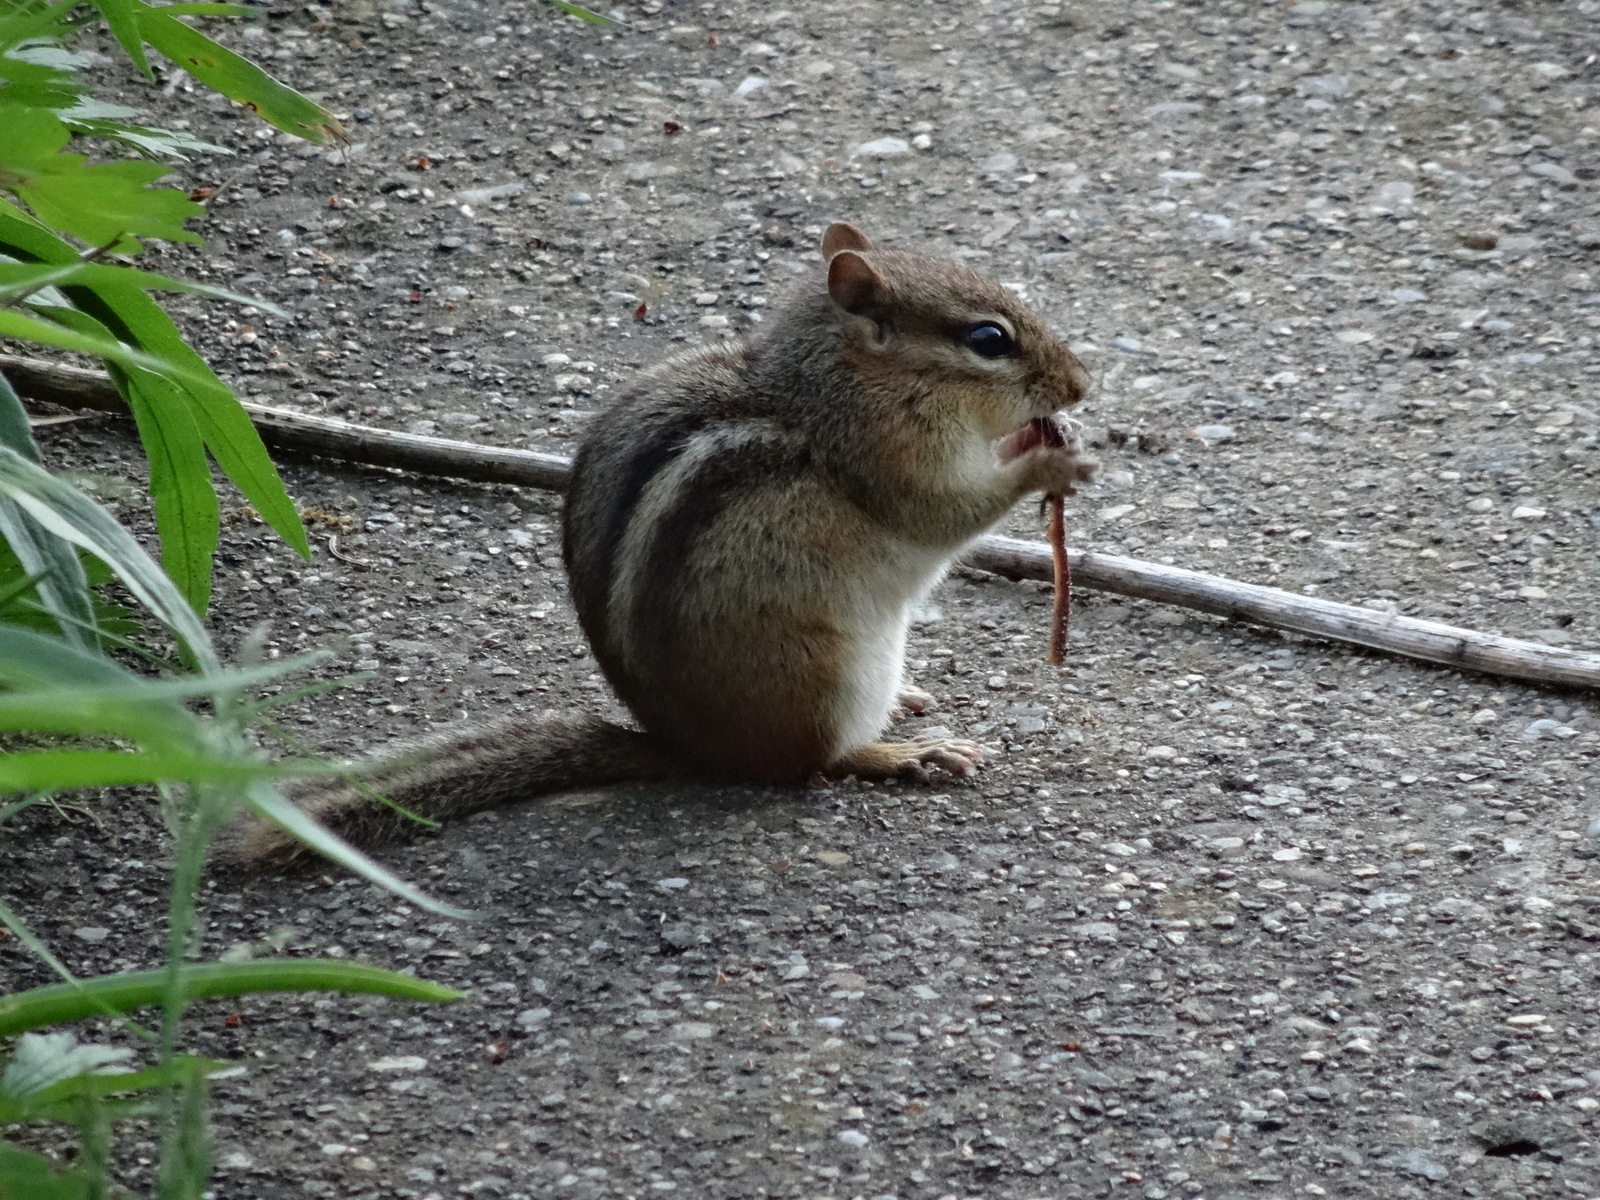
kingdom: Animalia
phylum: Chordata
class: Mammalia
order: Rodentia
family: Sciuridae
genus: Tamias
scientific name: Tamias striatus
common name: Eastern chipmunk
